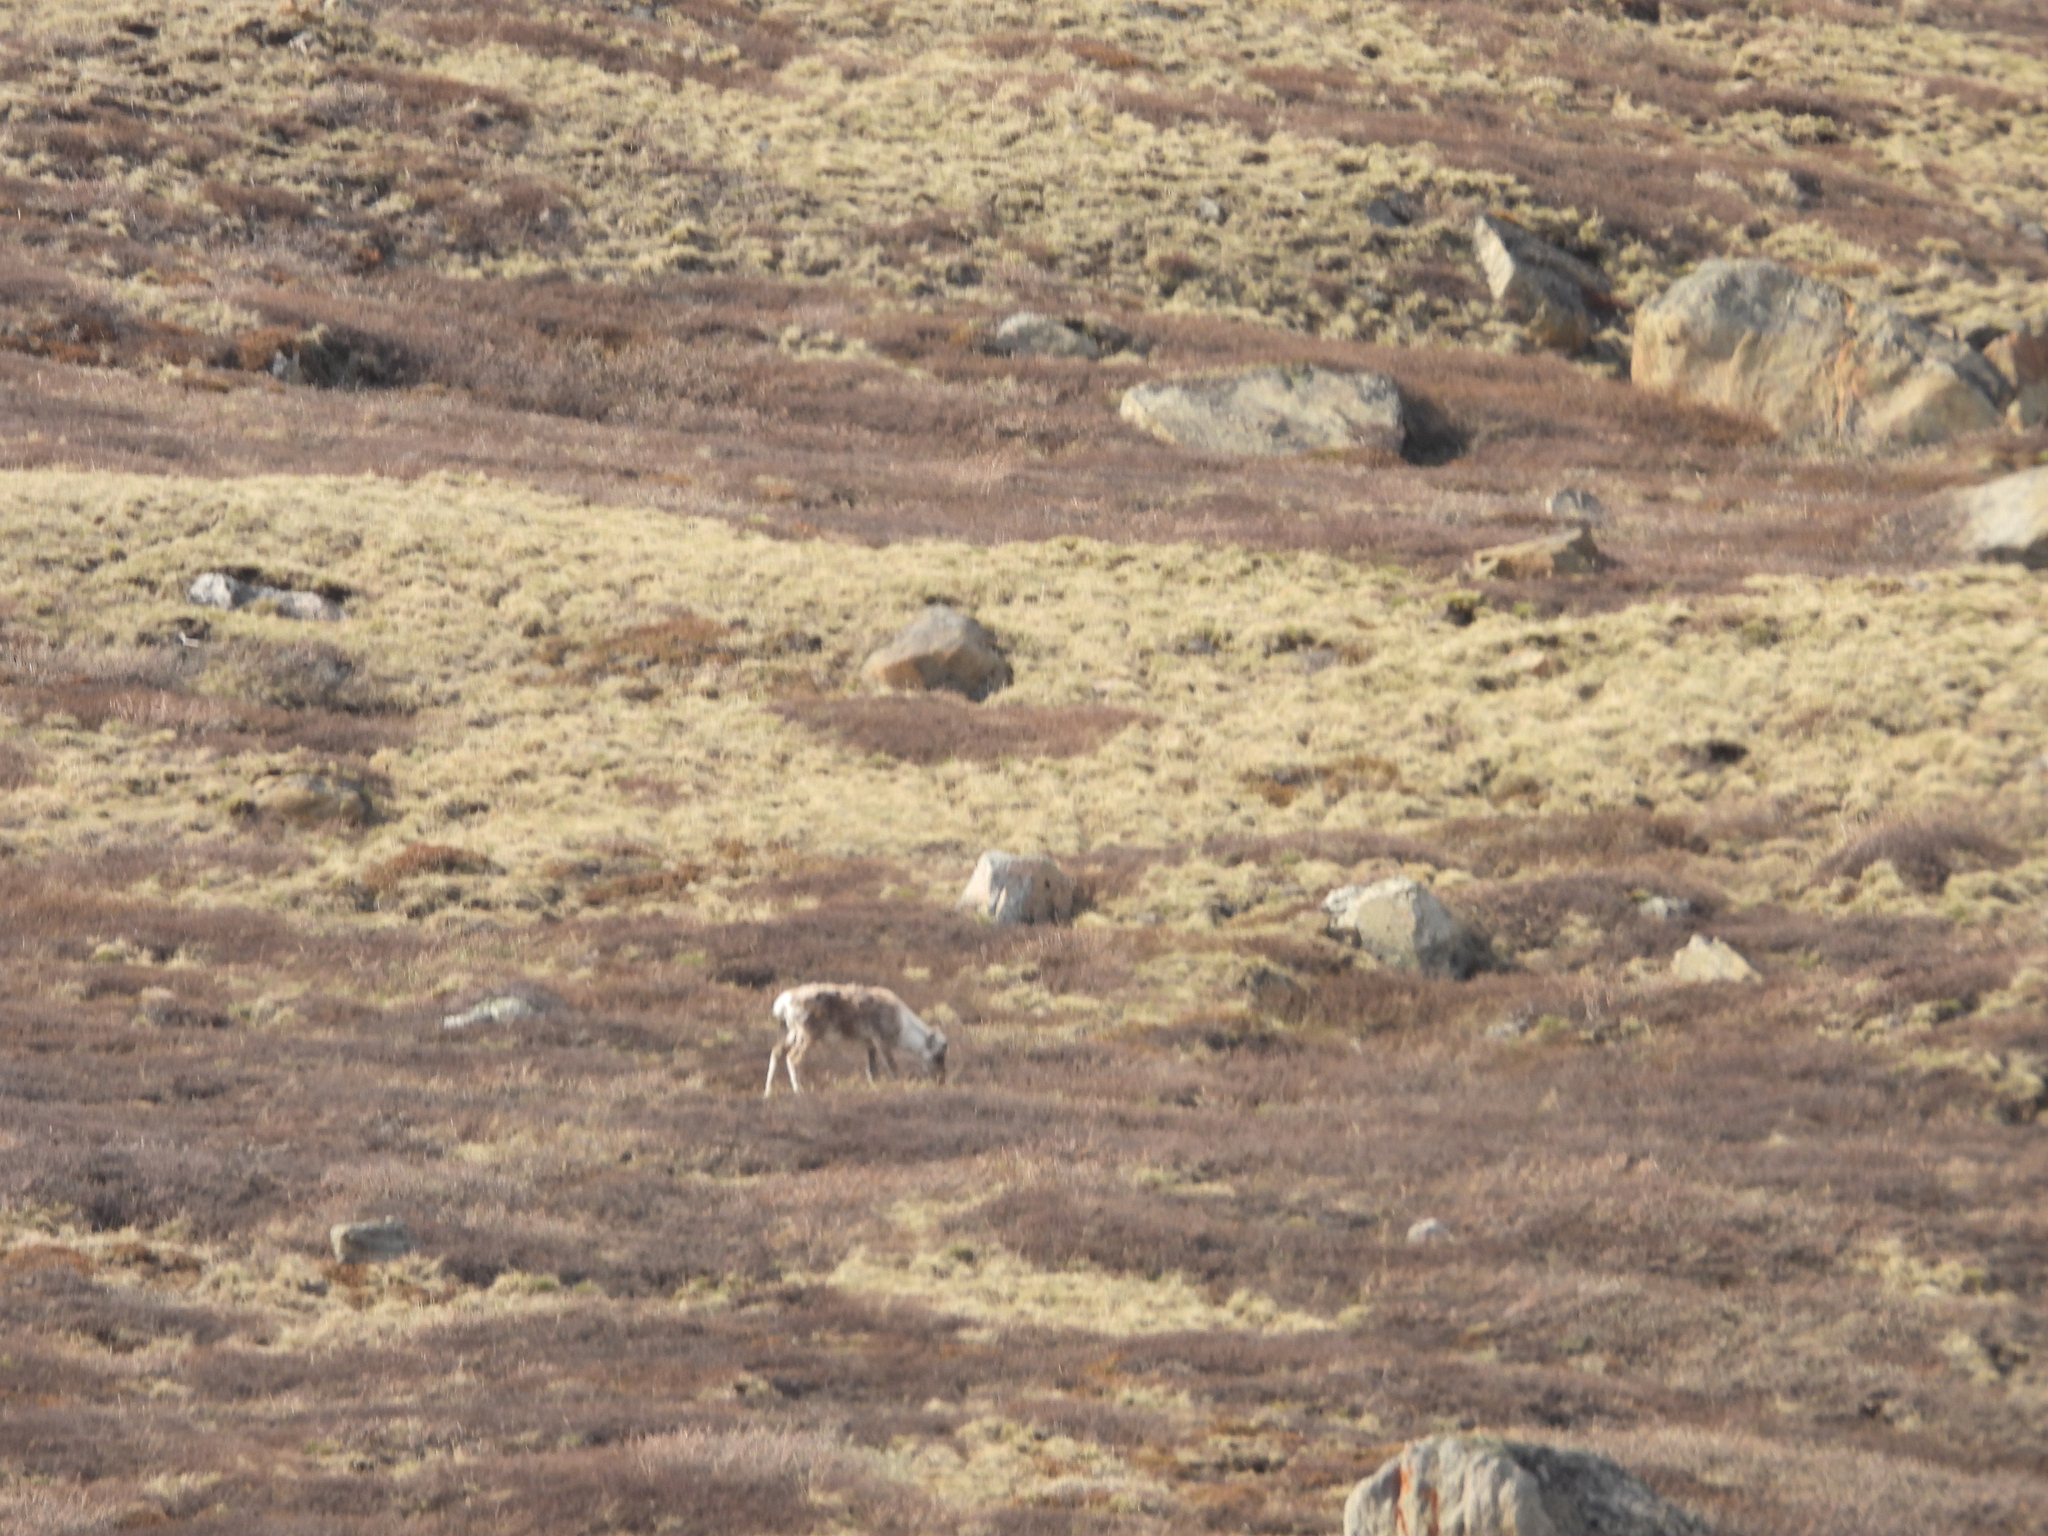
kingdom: Animalia
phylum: Chordata
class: Mammalia
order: Artiodactyla
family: Cervidae
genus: Rangifer
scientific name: Rangifer tarandus
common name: Reindeer
